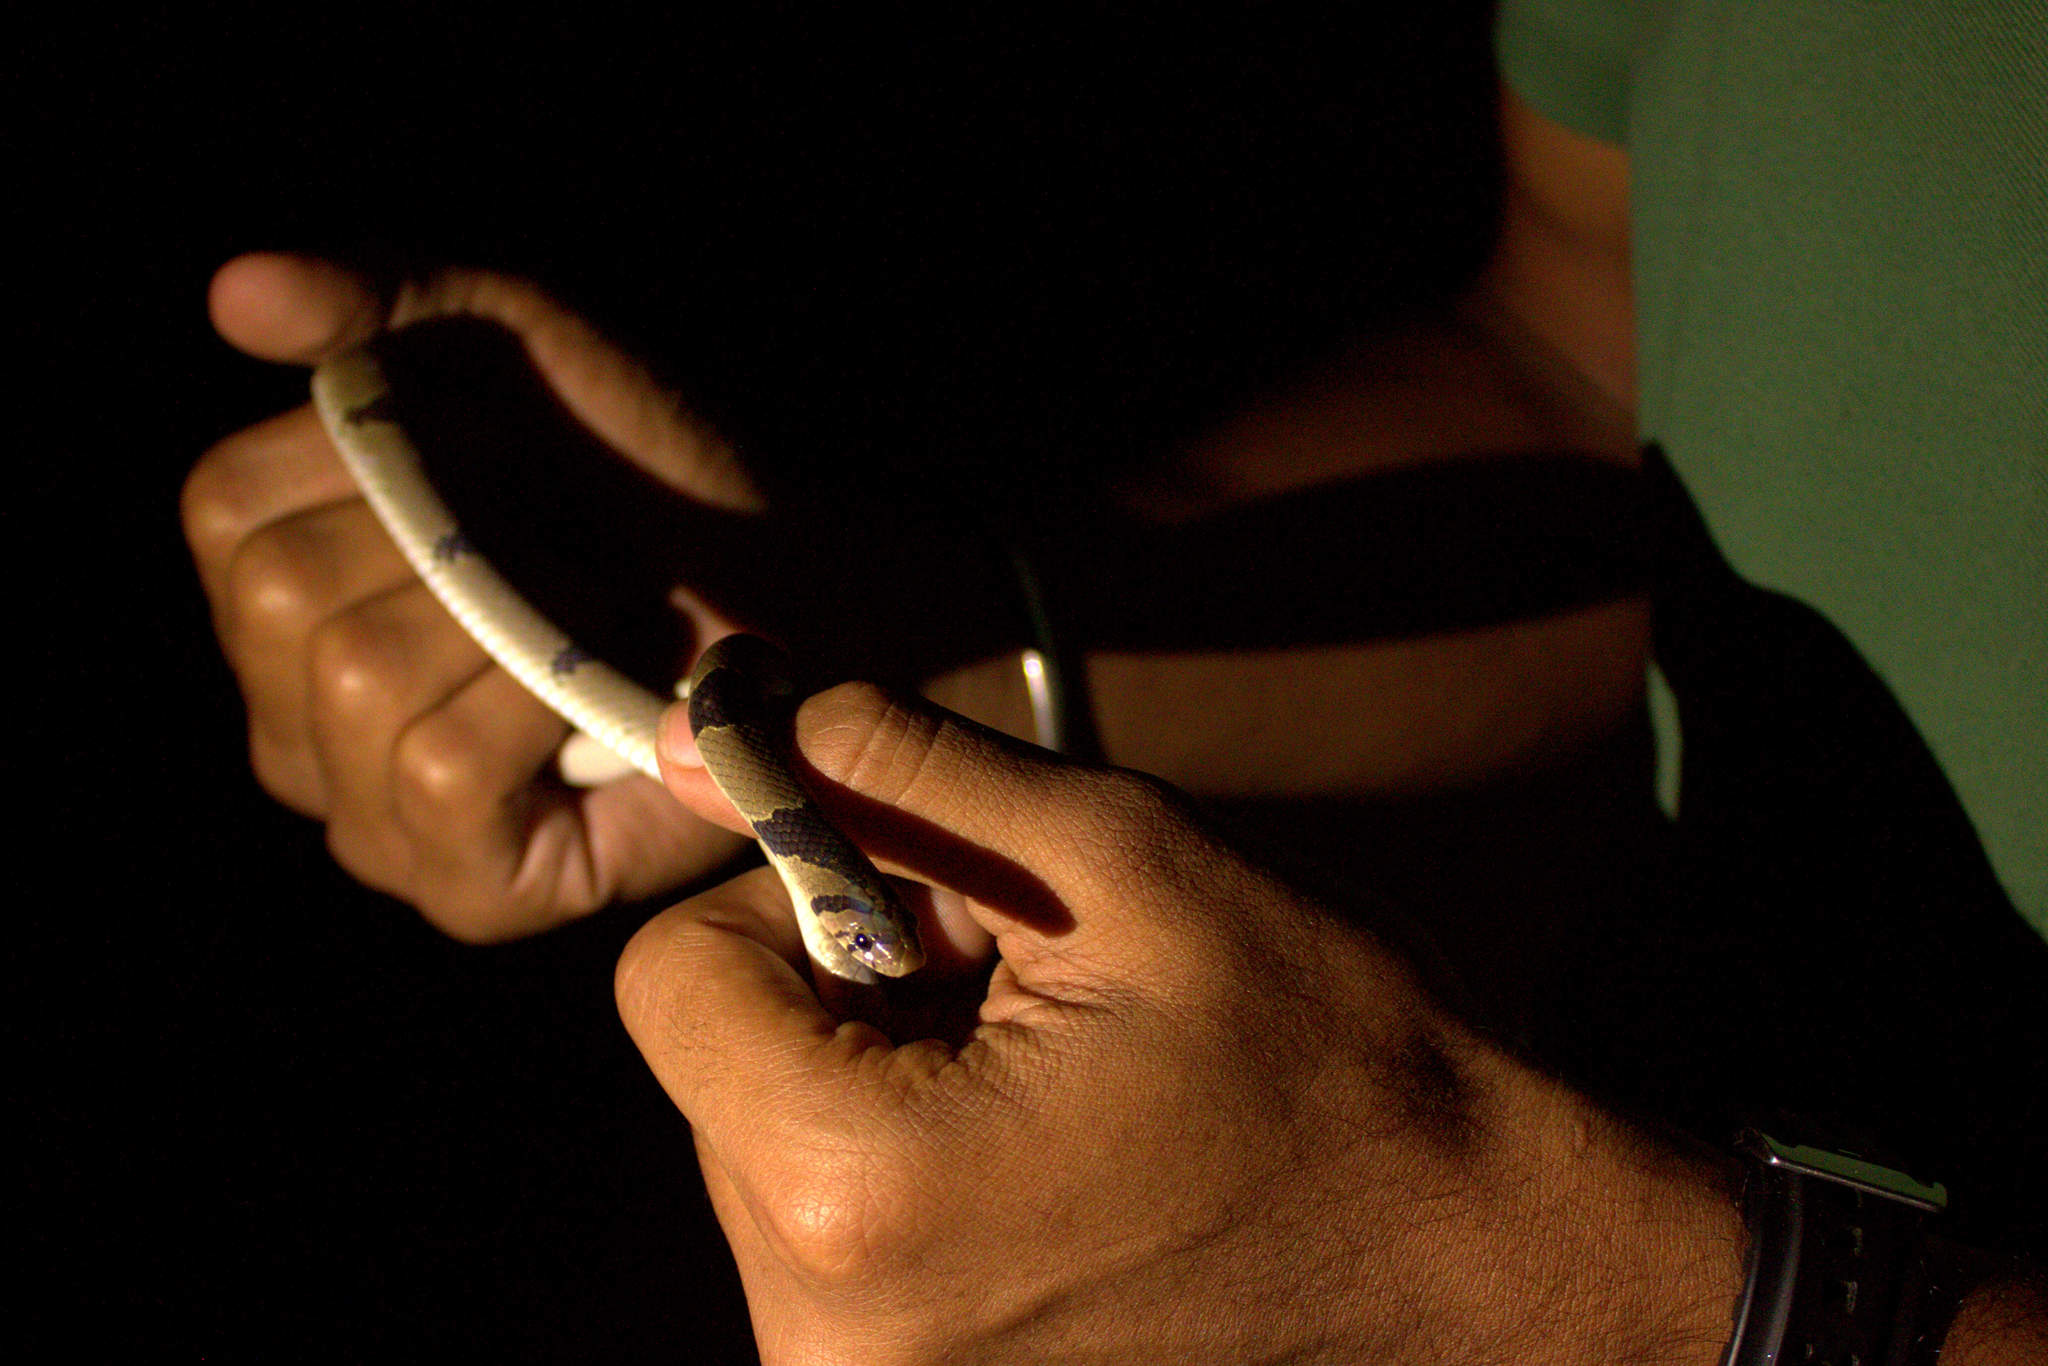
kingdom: Animalia
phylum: Chordata
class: Squamata
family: Colubridae
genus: Oligodon
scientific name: Oligodon arnensis
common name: Banded kukri
